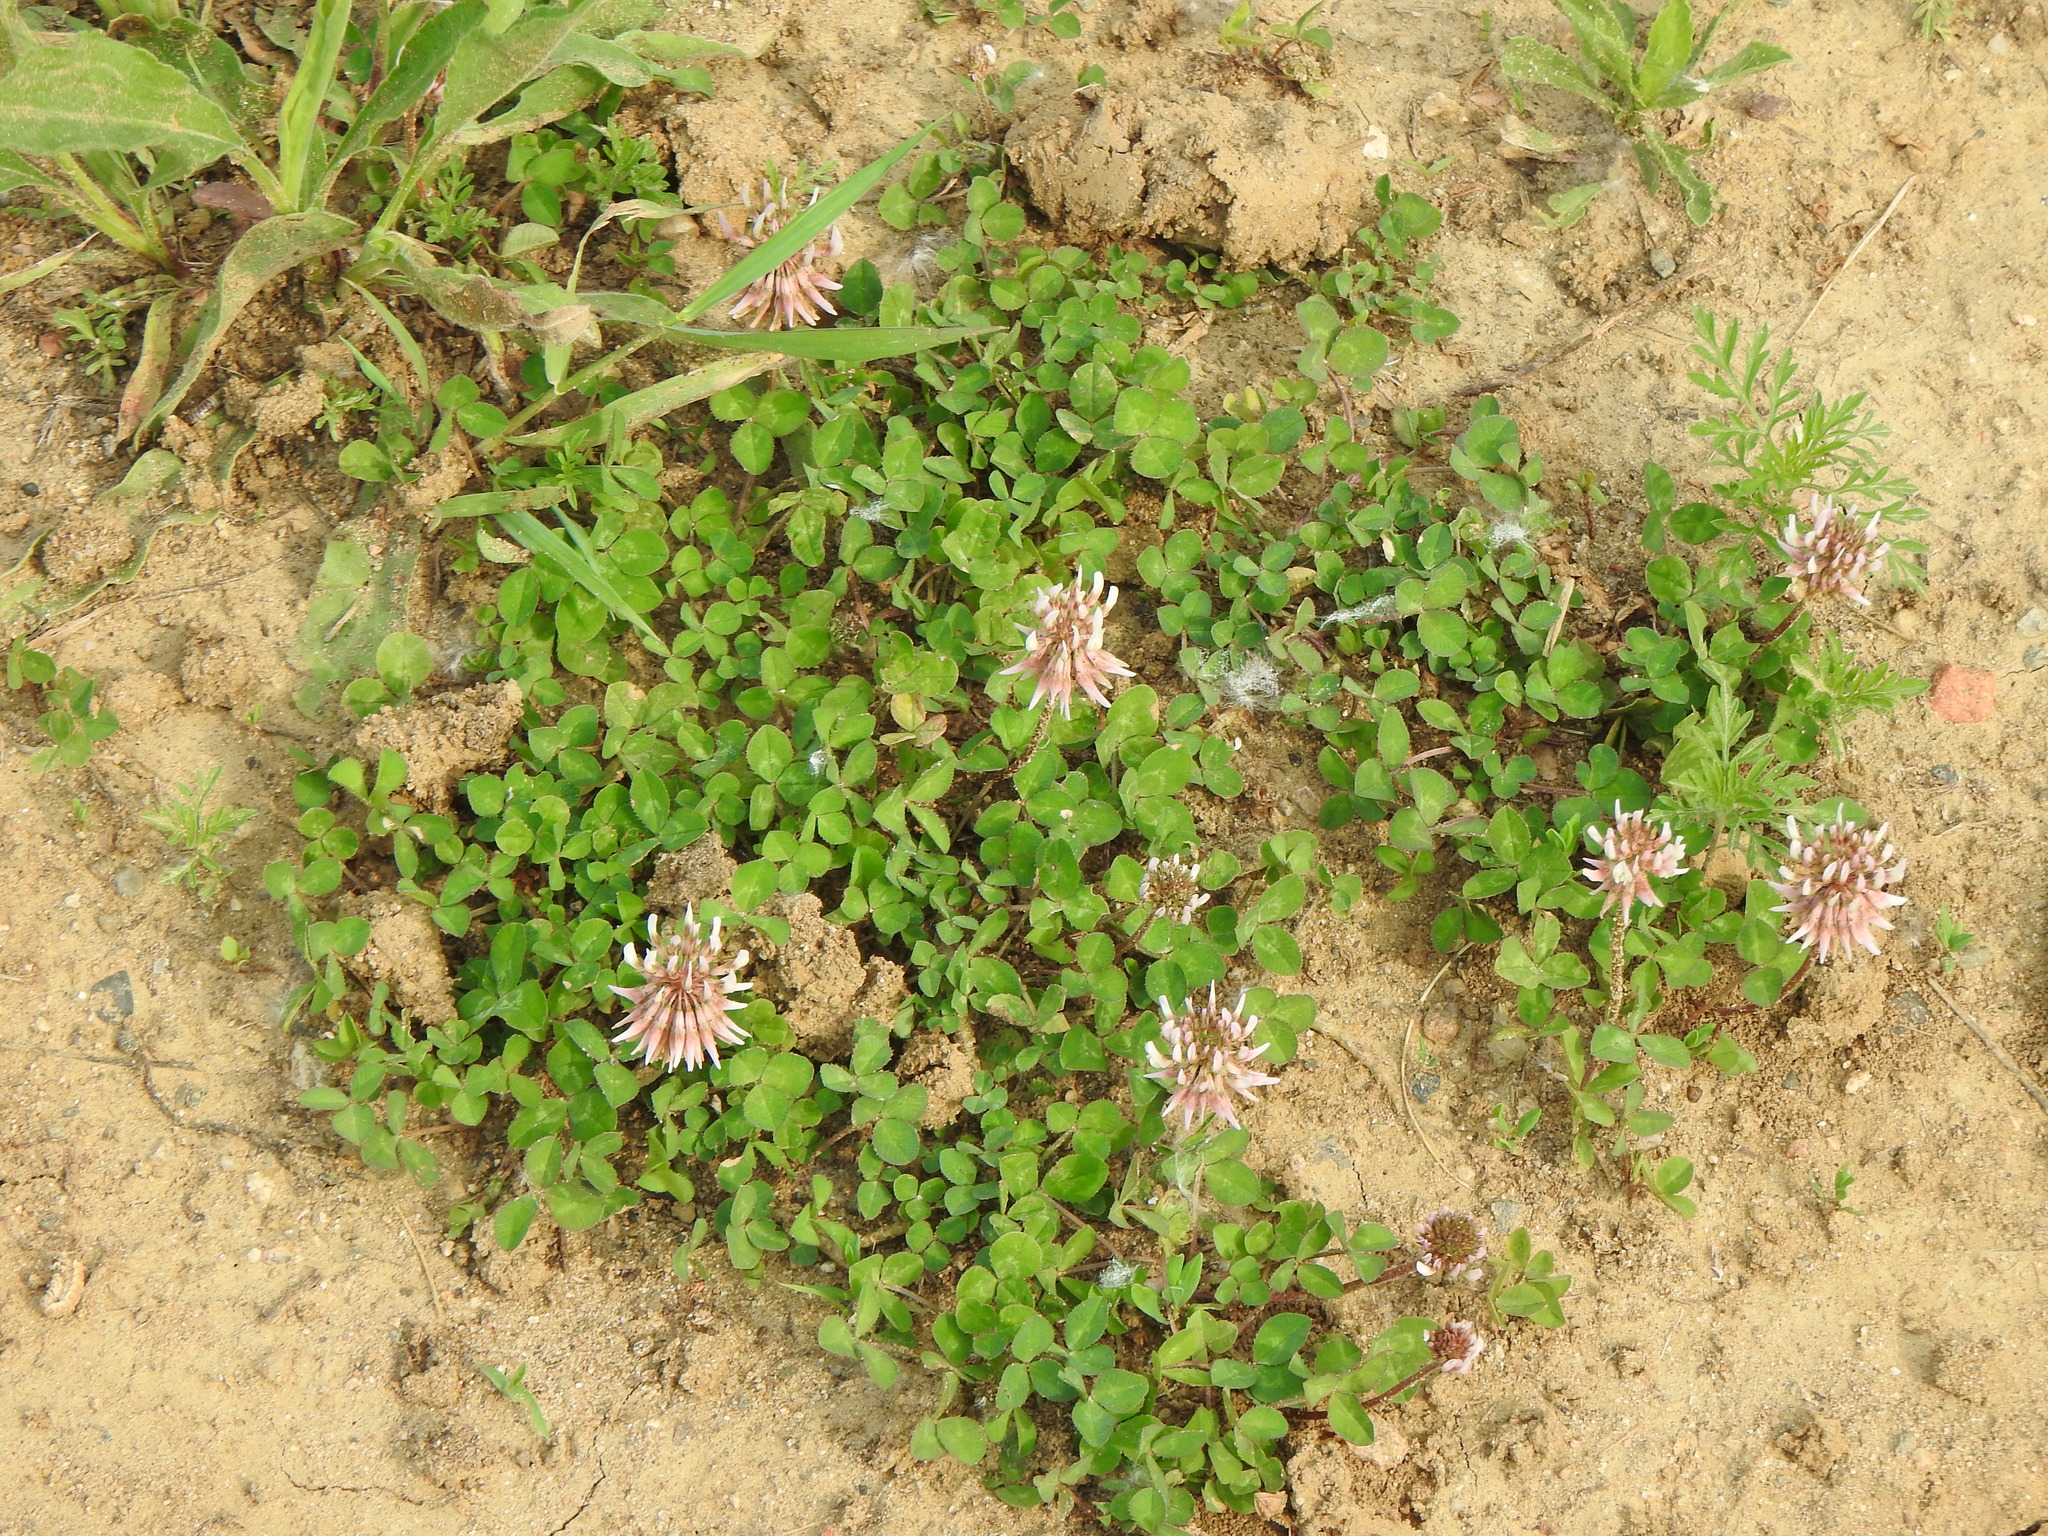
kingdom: Plantae
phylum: Tracheophyta
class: Magnoliopsida
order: Fabales
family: Fabaceae
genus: Trifolium
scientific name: Trifolium repens
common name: White clover
